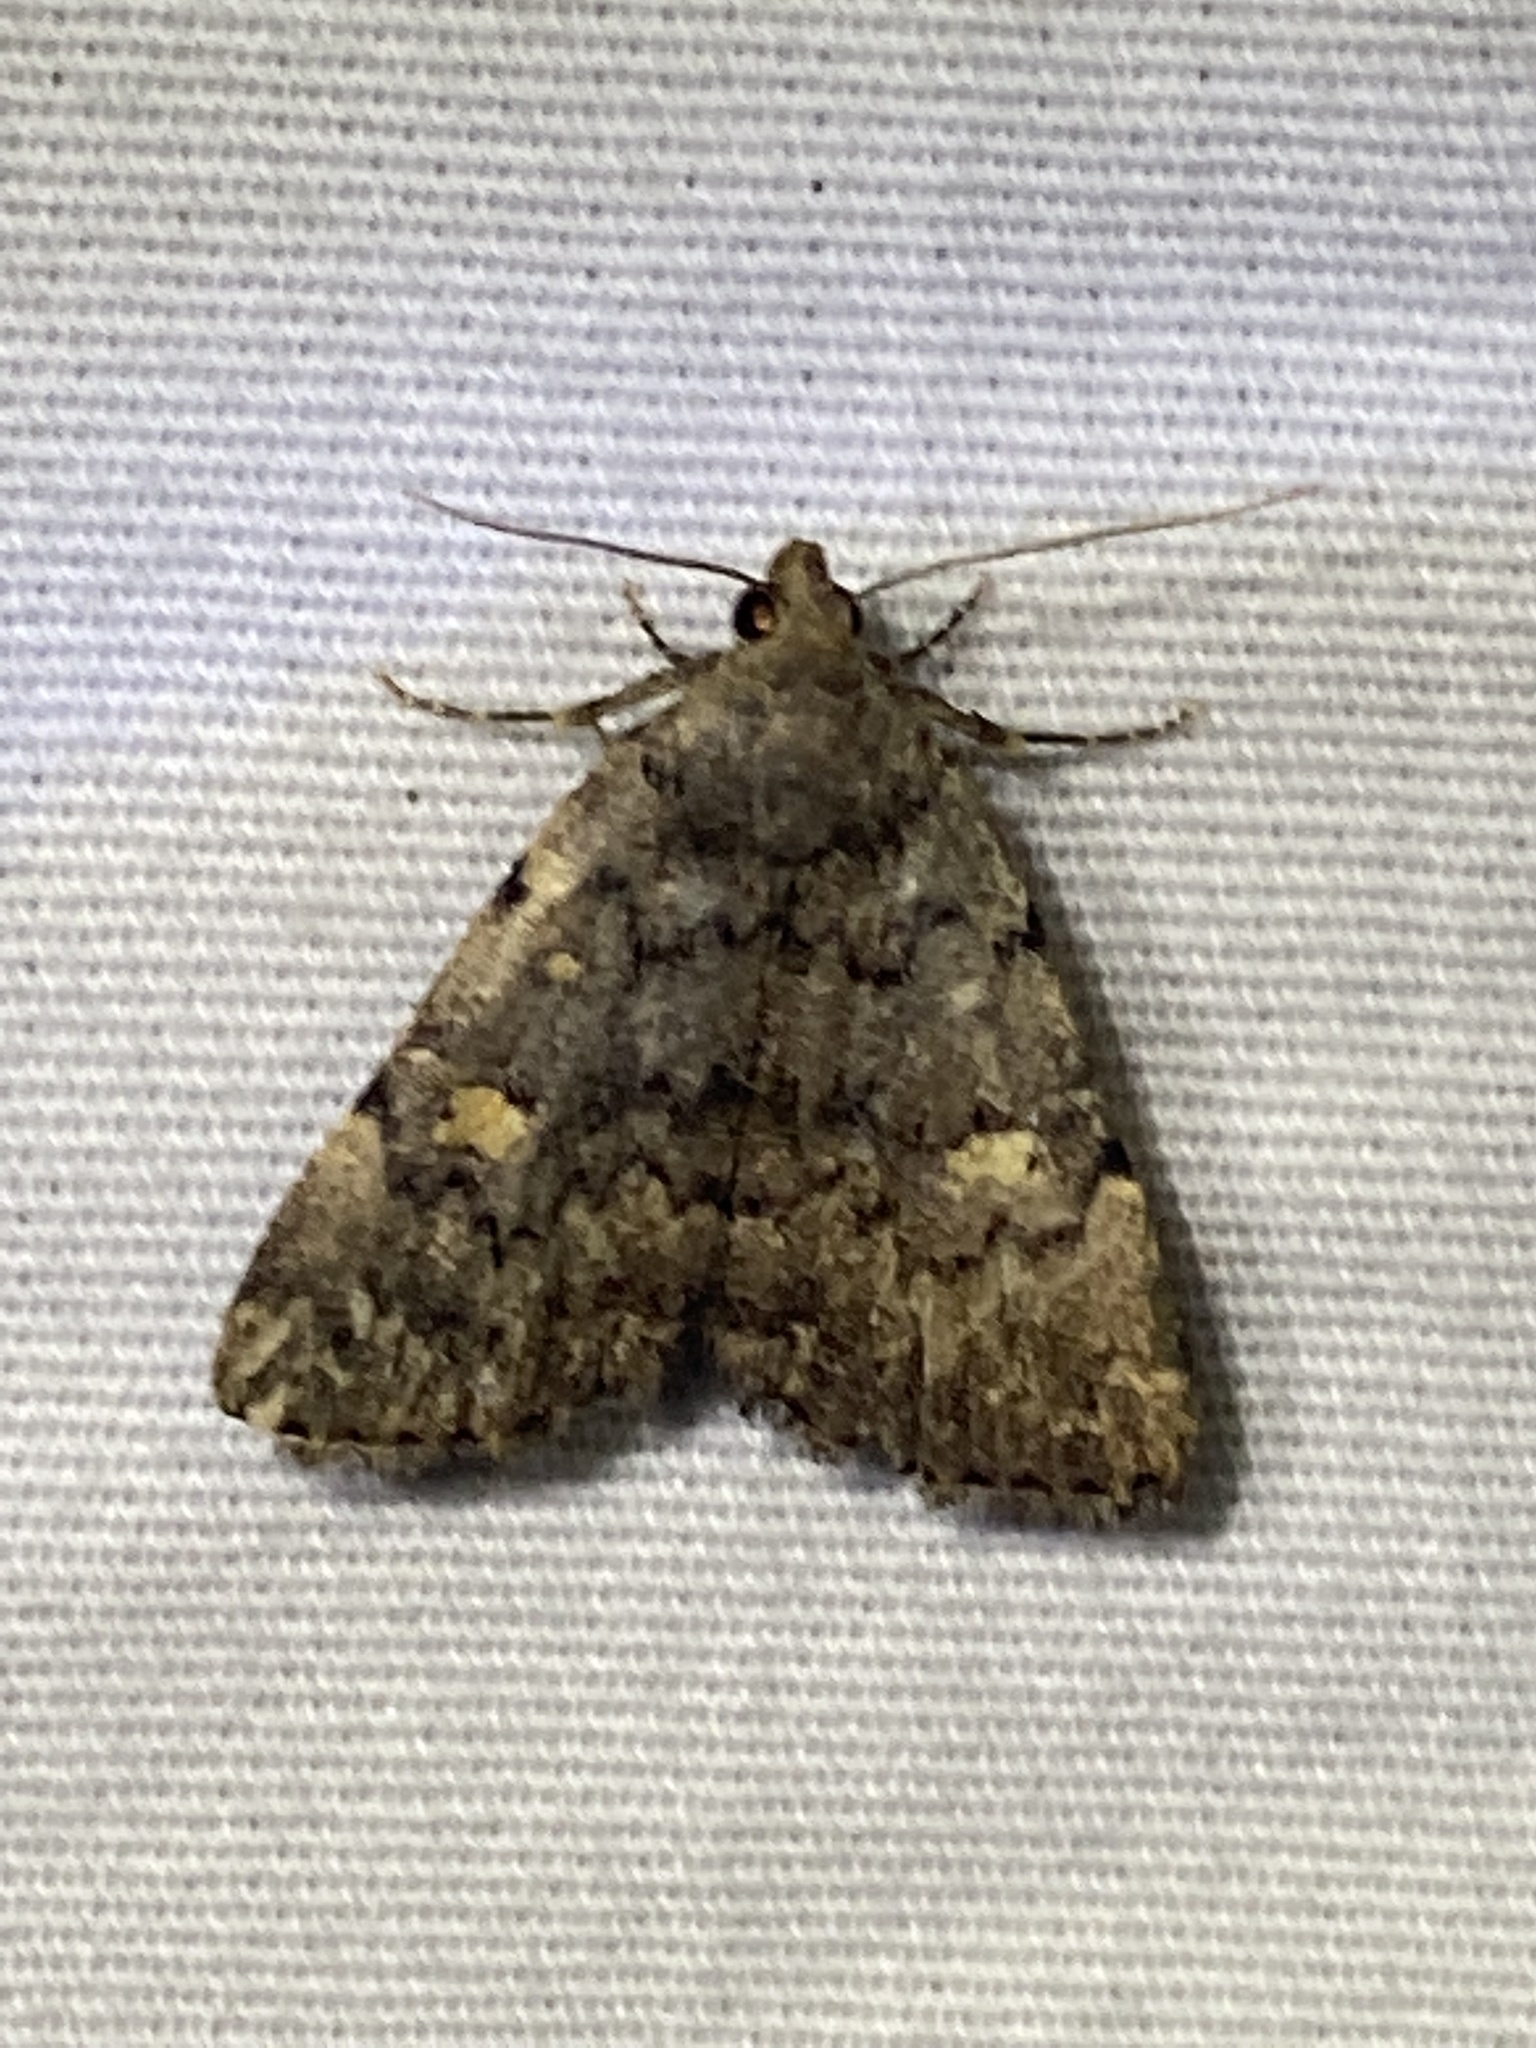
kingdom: Animalia
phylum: Arthropoda
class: Insecta
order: Lepidoptera
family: Erebidae
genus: Idia
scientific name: Idia aemula
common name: Common idia moth
